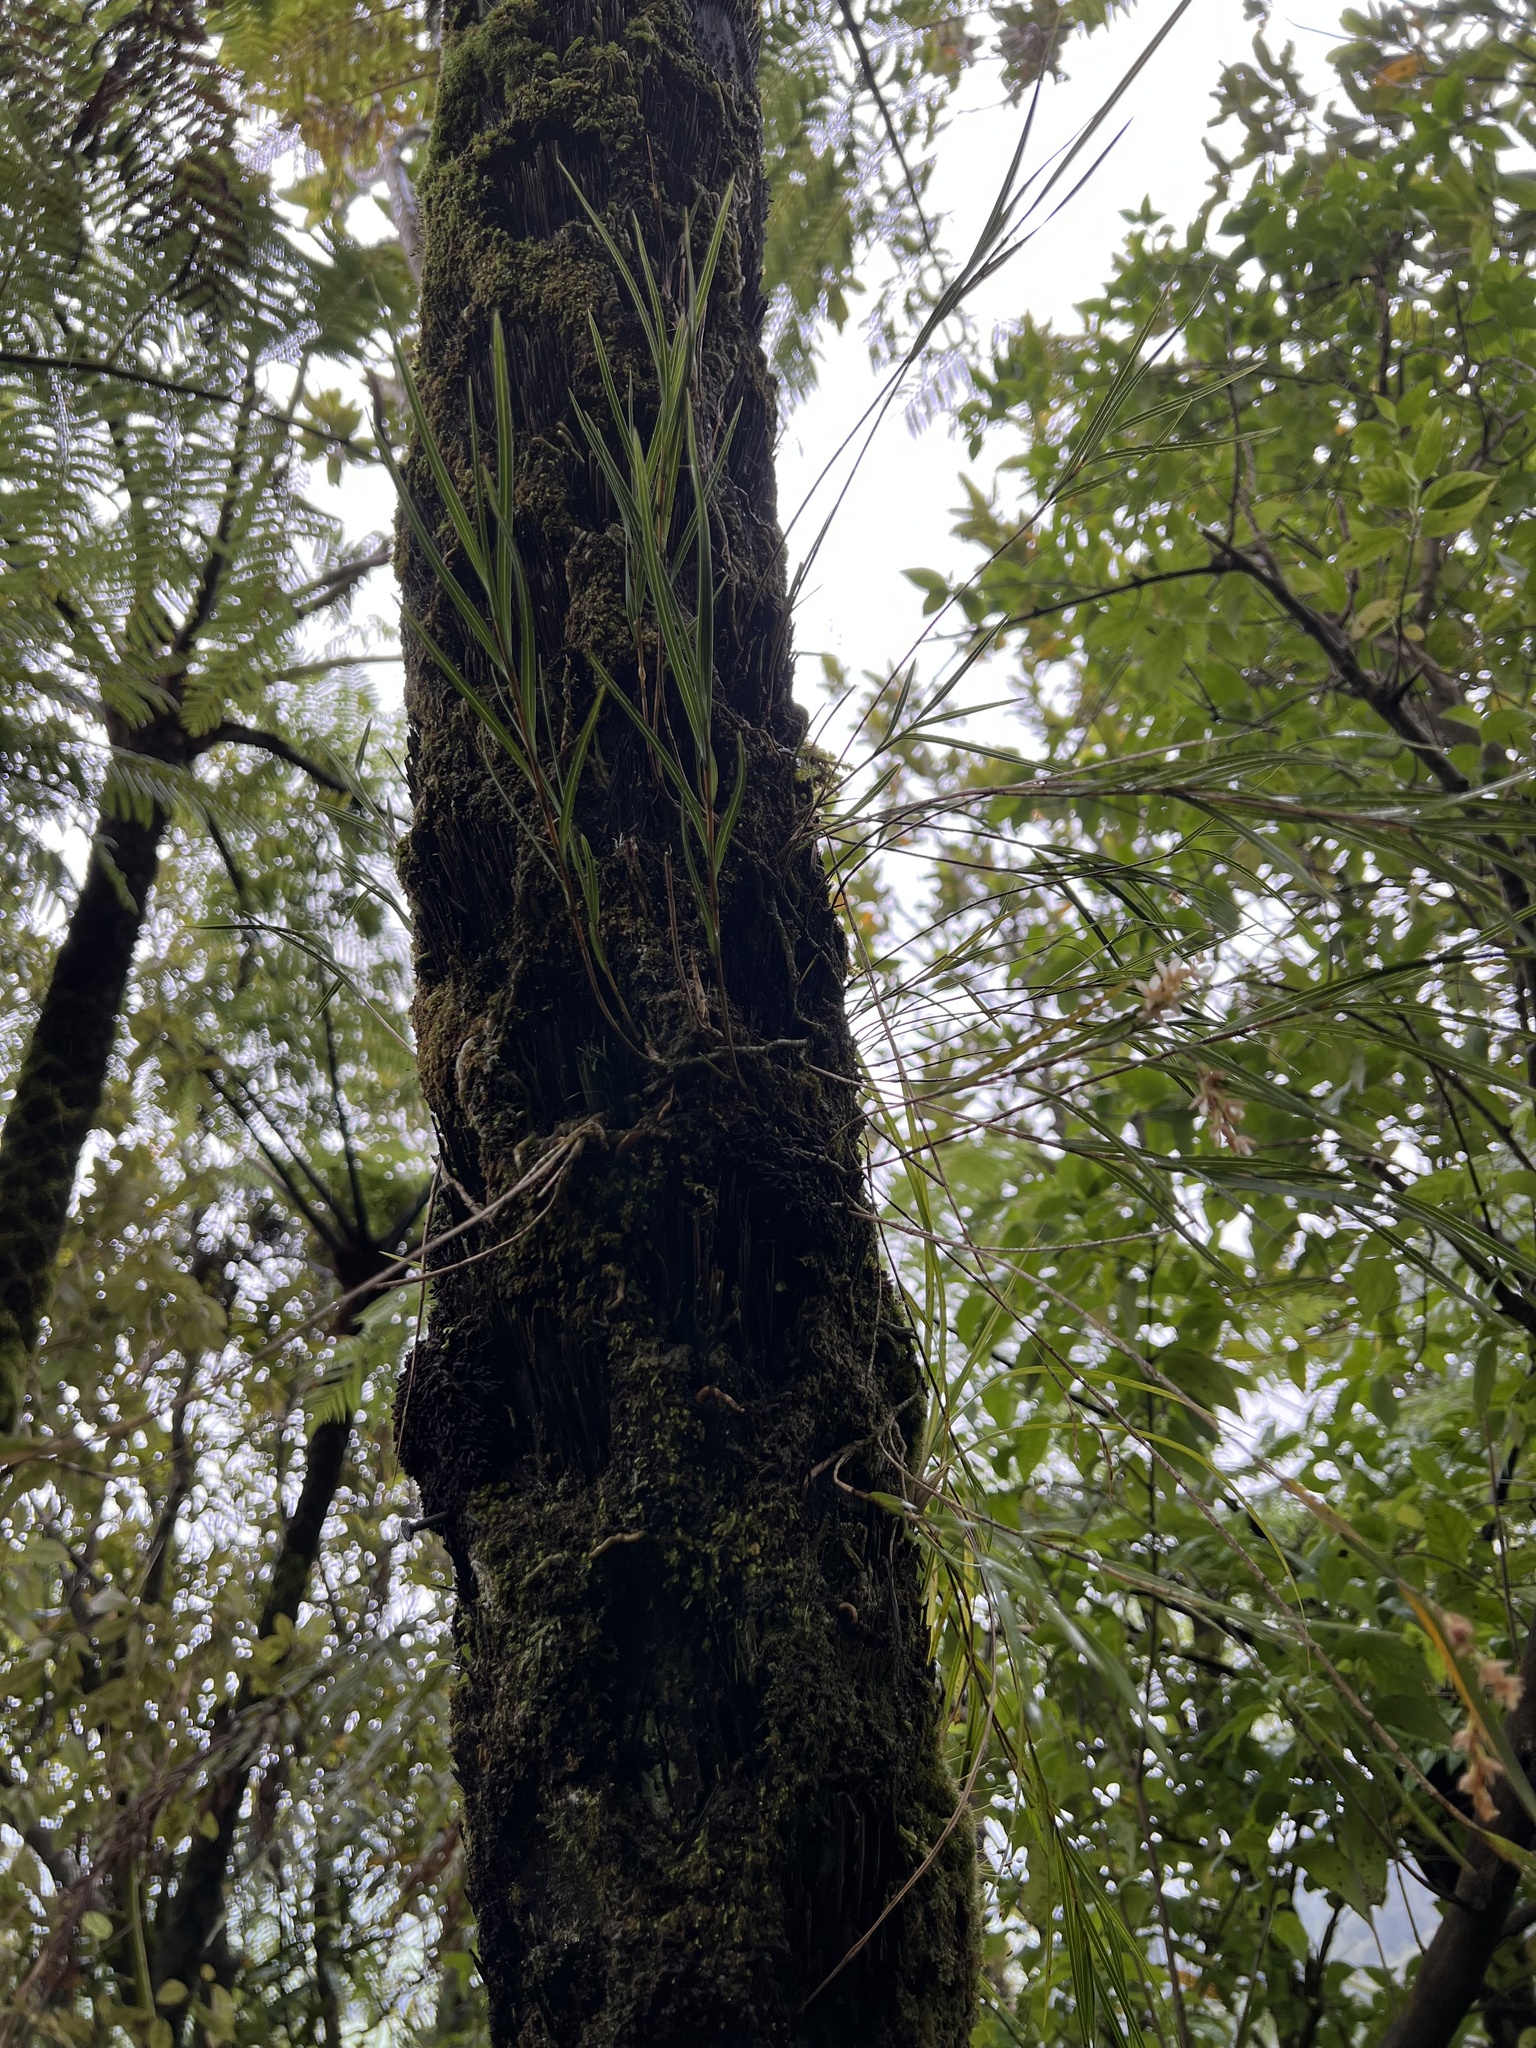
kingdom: Plantae
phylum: Tracheophyta
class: Liliopsida
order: Asparagales
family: Orchidaceae
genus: Earina
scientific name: Earina mucronata
